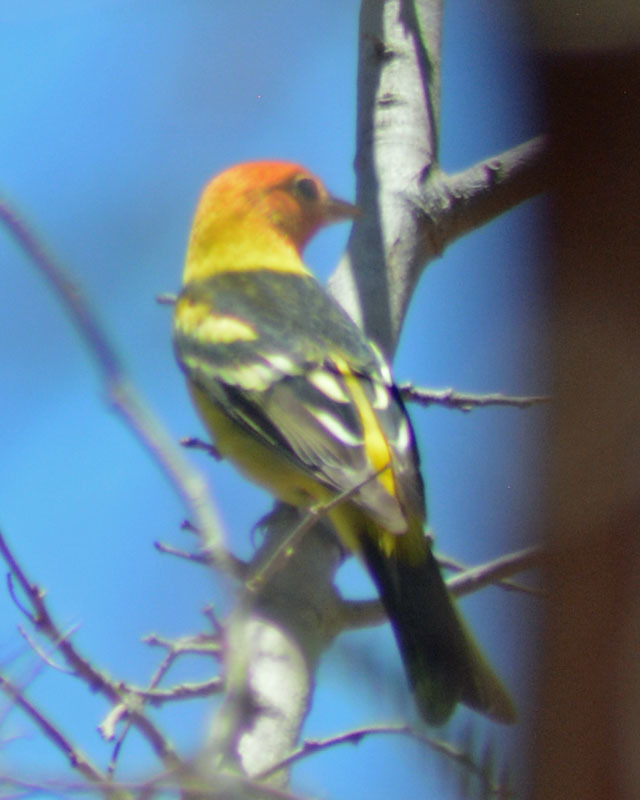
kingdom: Animalia
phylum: Chordata
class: Aves
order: Passeriformes
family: Cardinalidae
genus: Piranga
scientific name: Piranga ludoviciana
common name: Western tanager
